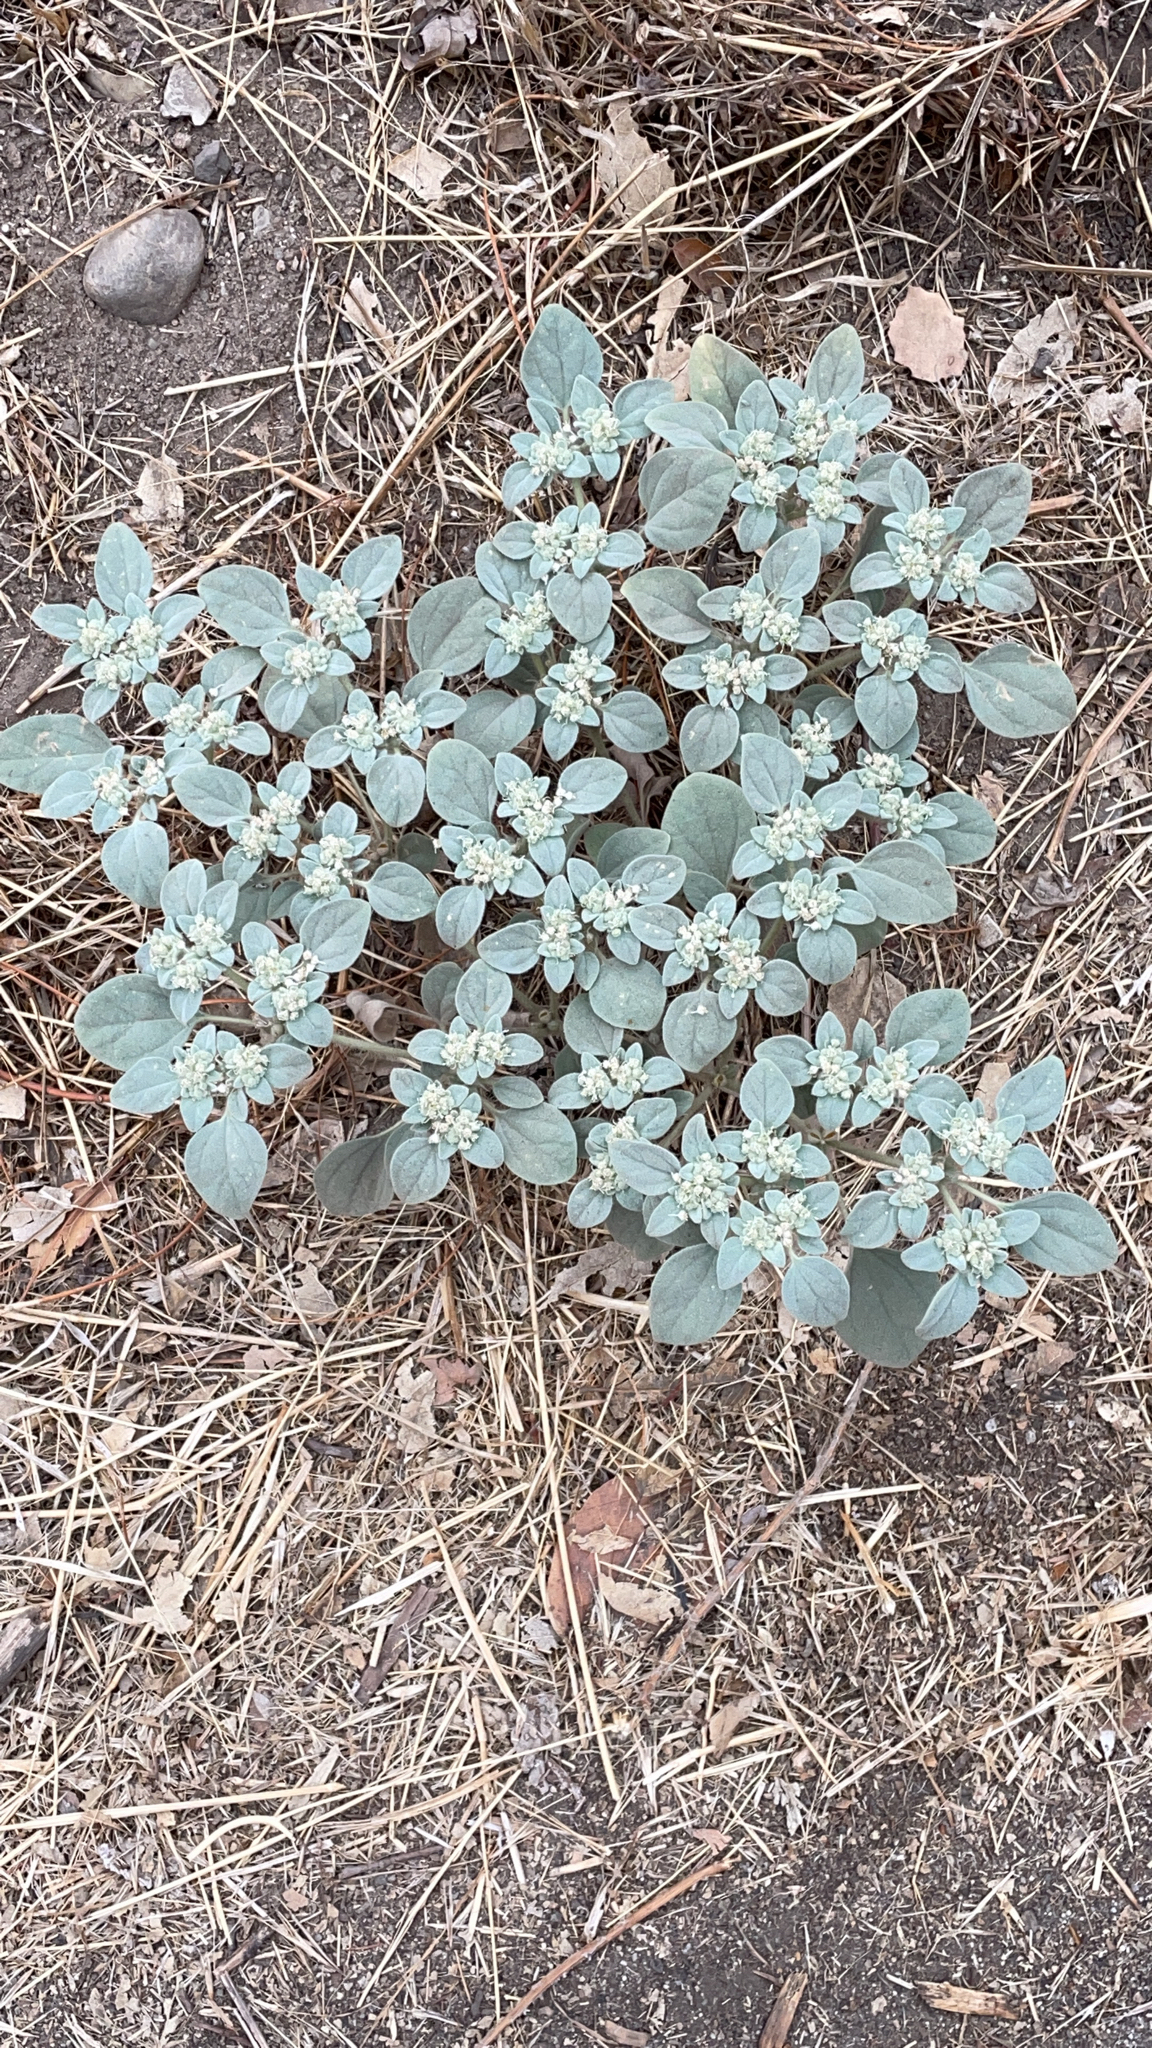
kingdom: Plantae
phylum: Tracheophyta
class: Magnoliopsida
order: Malpighiales
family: Euphorbiaceae
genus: Croton
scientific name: Croton setiger
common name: Dove weed
